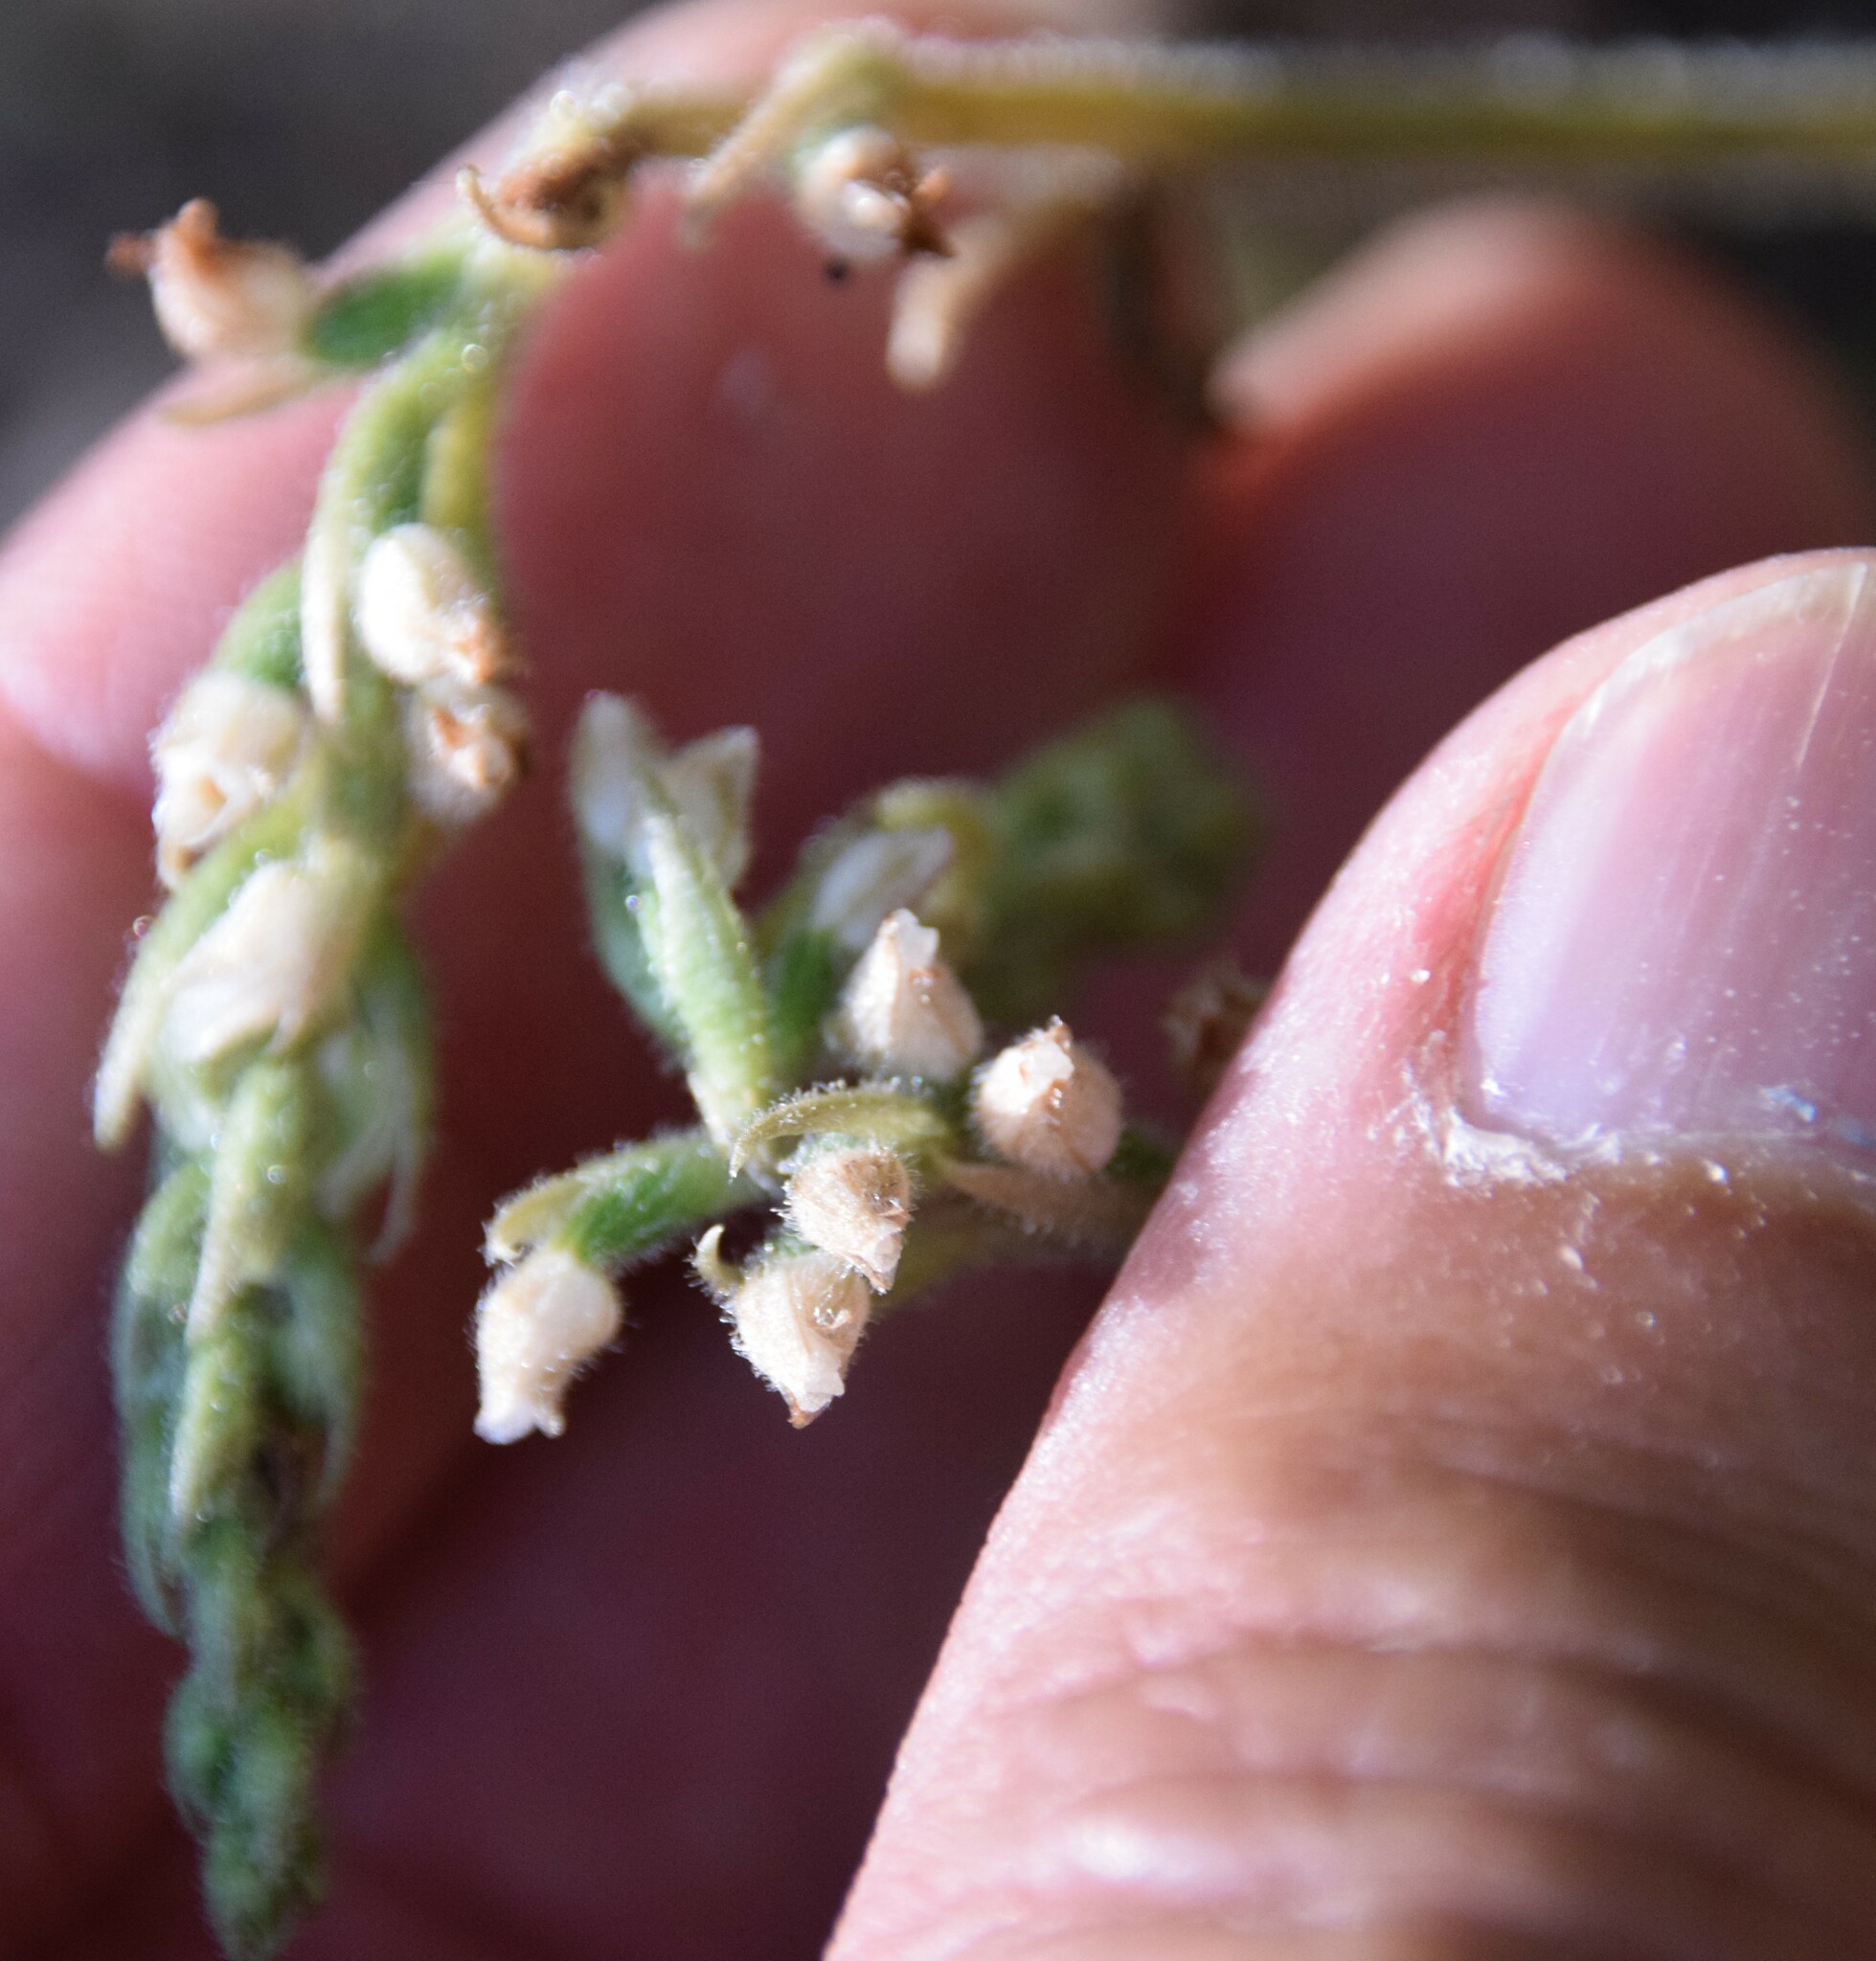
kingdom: Plantae
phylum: Tracheophyta
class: Liliopsida
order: Asparagales
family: Orchidaceae
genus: Goodyera
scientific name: Goodyera tesselata
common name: Checkered rattlesnake-plantain
